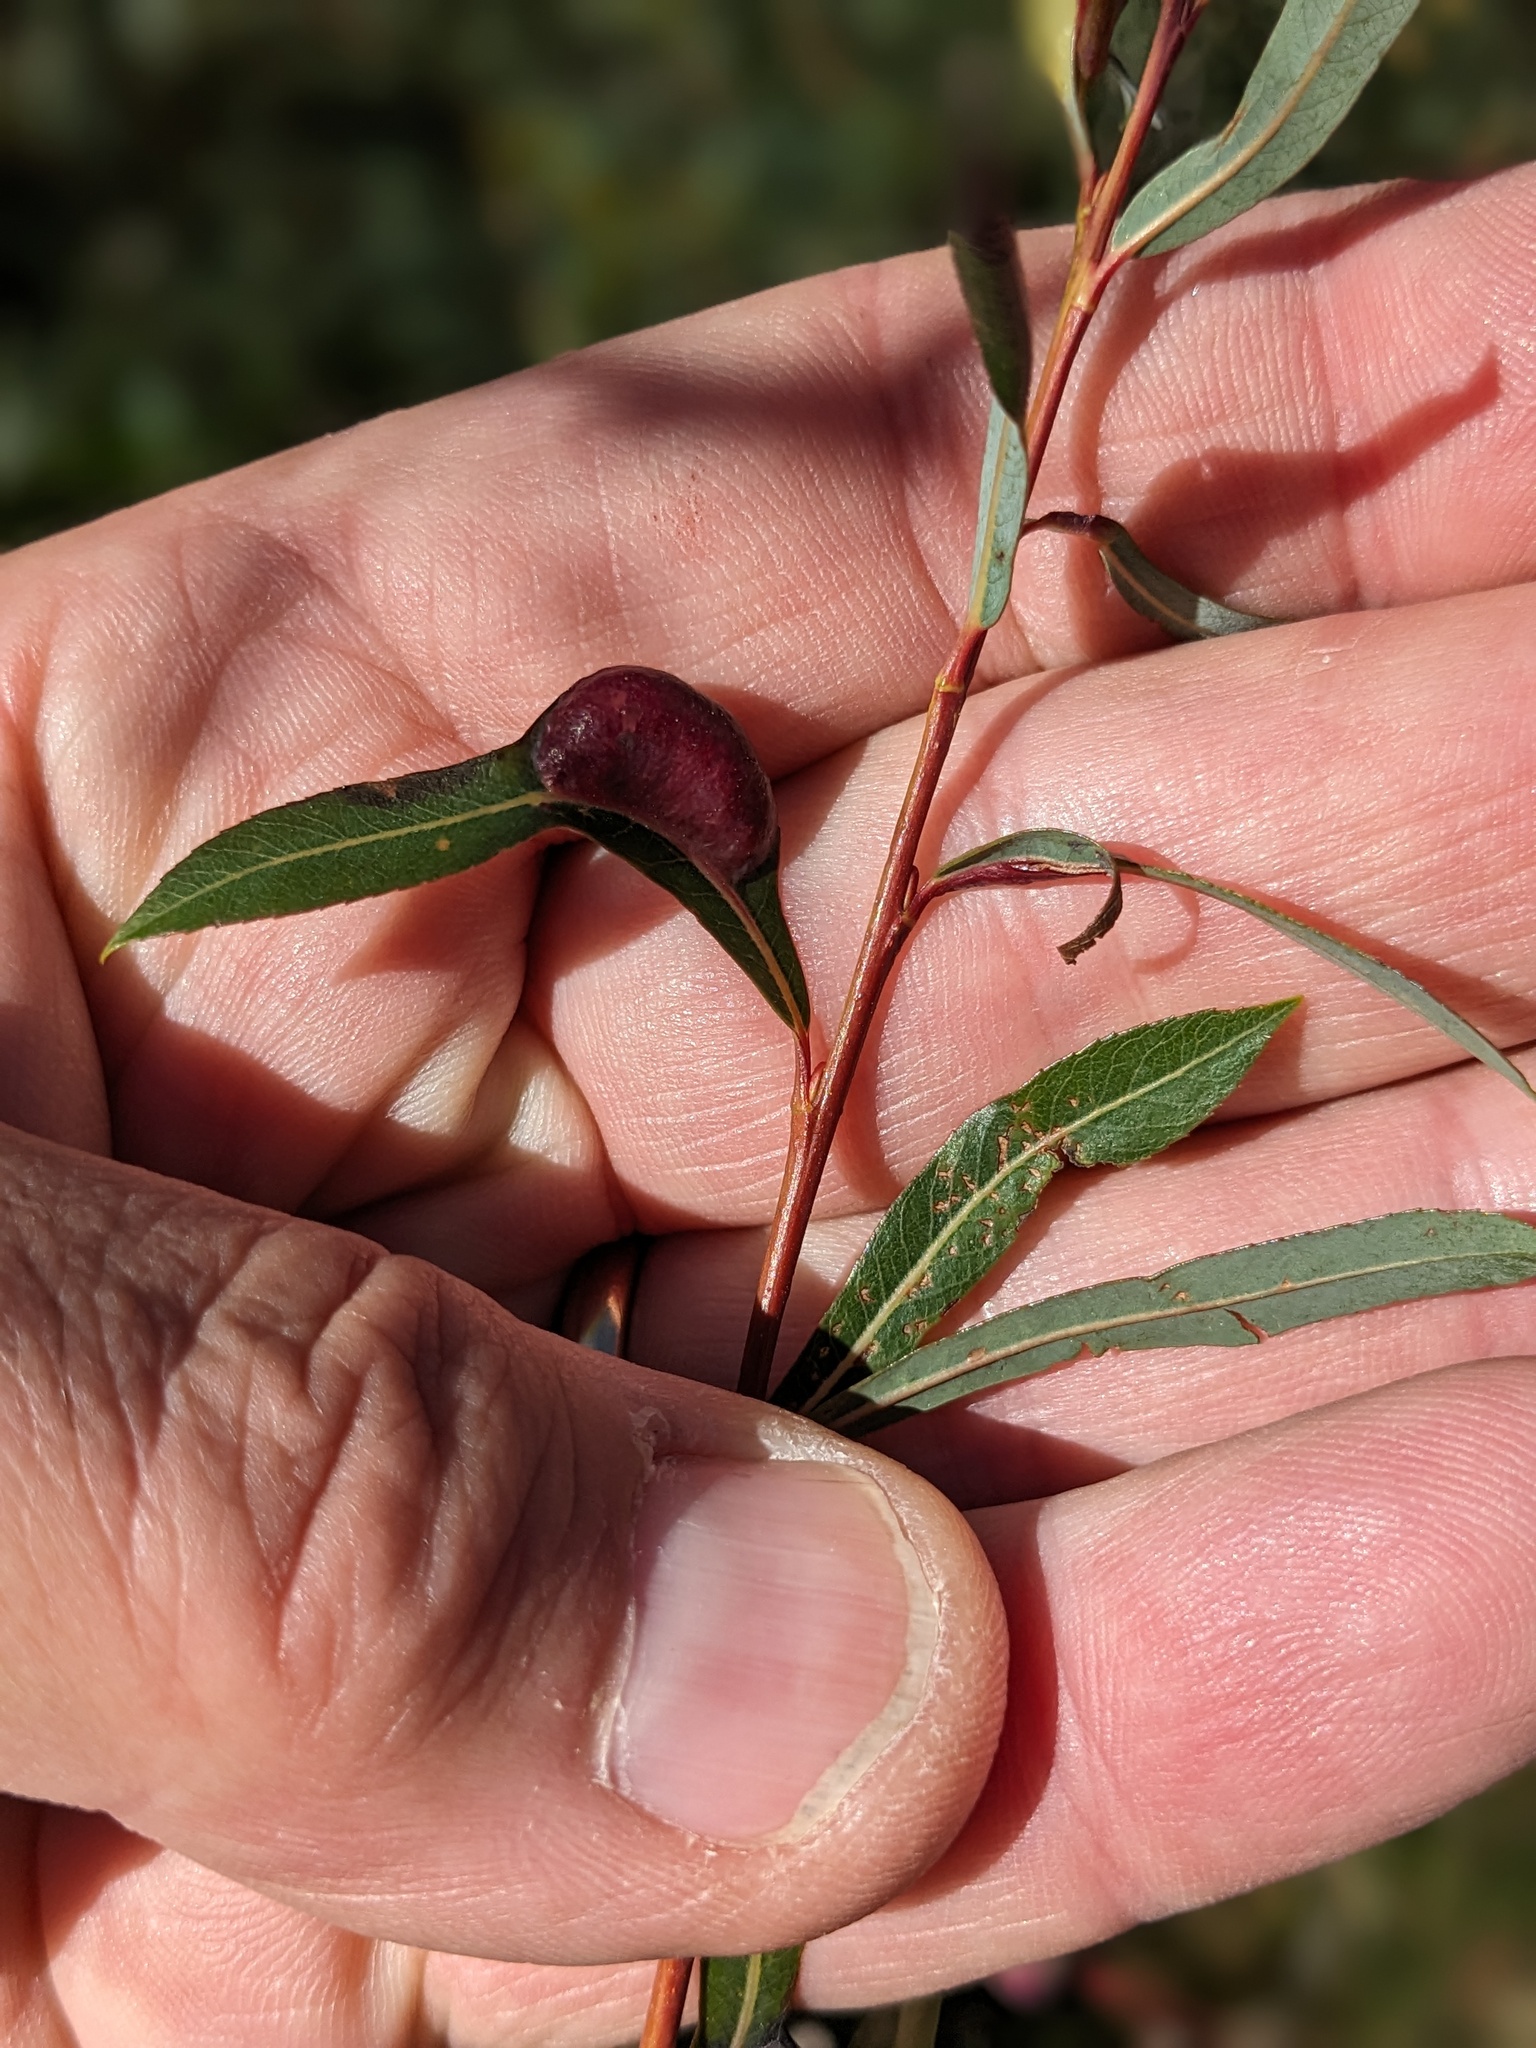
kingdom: Animalia
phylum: Arthropoda
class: Insecta
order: Hymenoptera
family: Tenthredinidae
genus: Pontania
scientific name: Pontania vesicator
